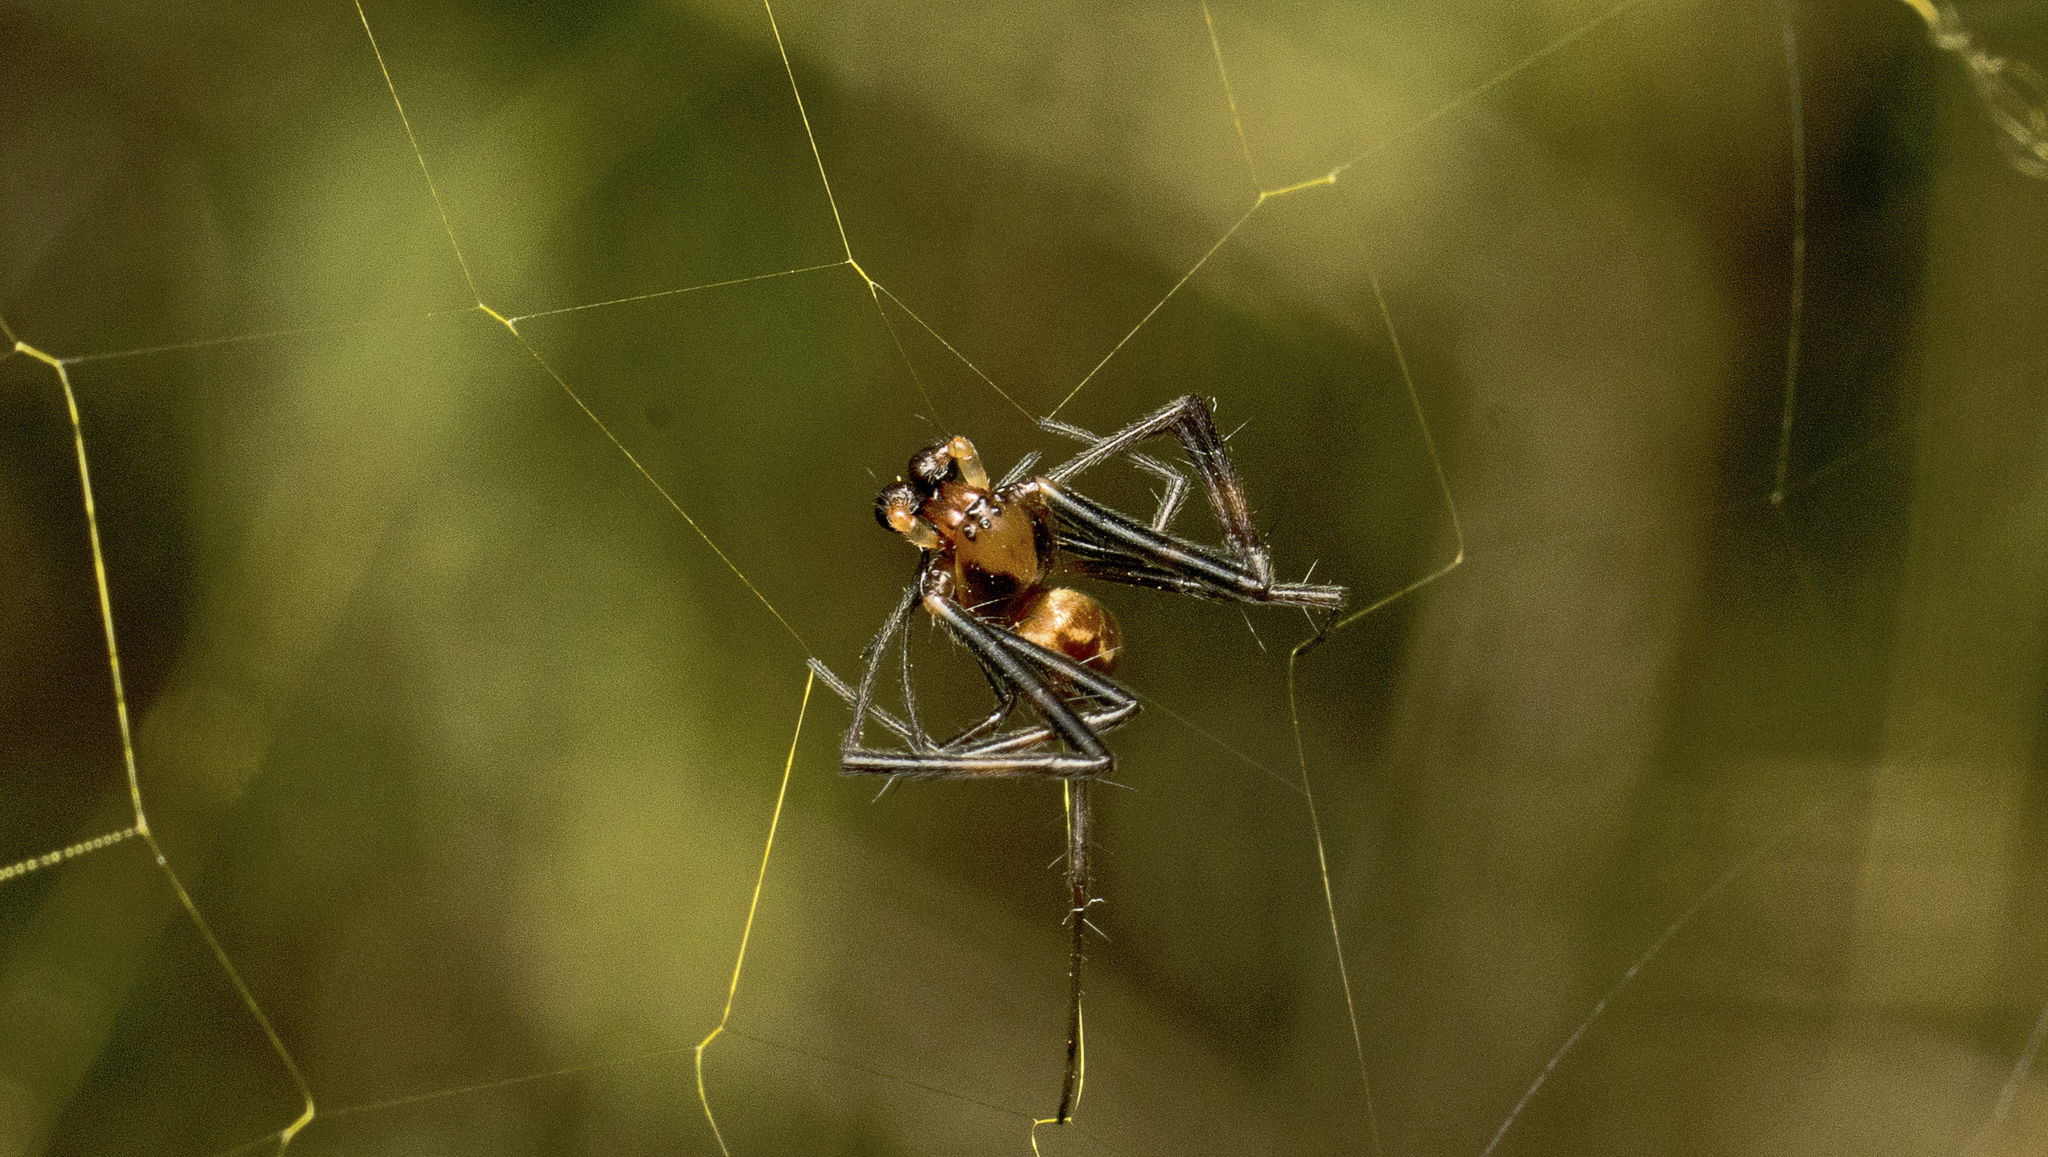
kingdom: Animalia
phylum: Arthropoda
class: Arachnida
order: Araneae
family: Araneidae
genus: Trichonephila
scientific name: Trichonephila plumipes
